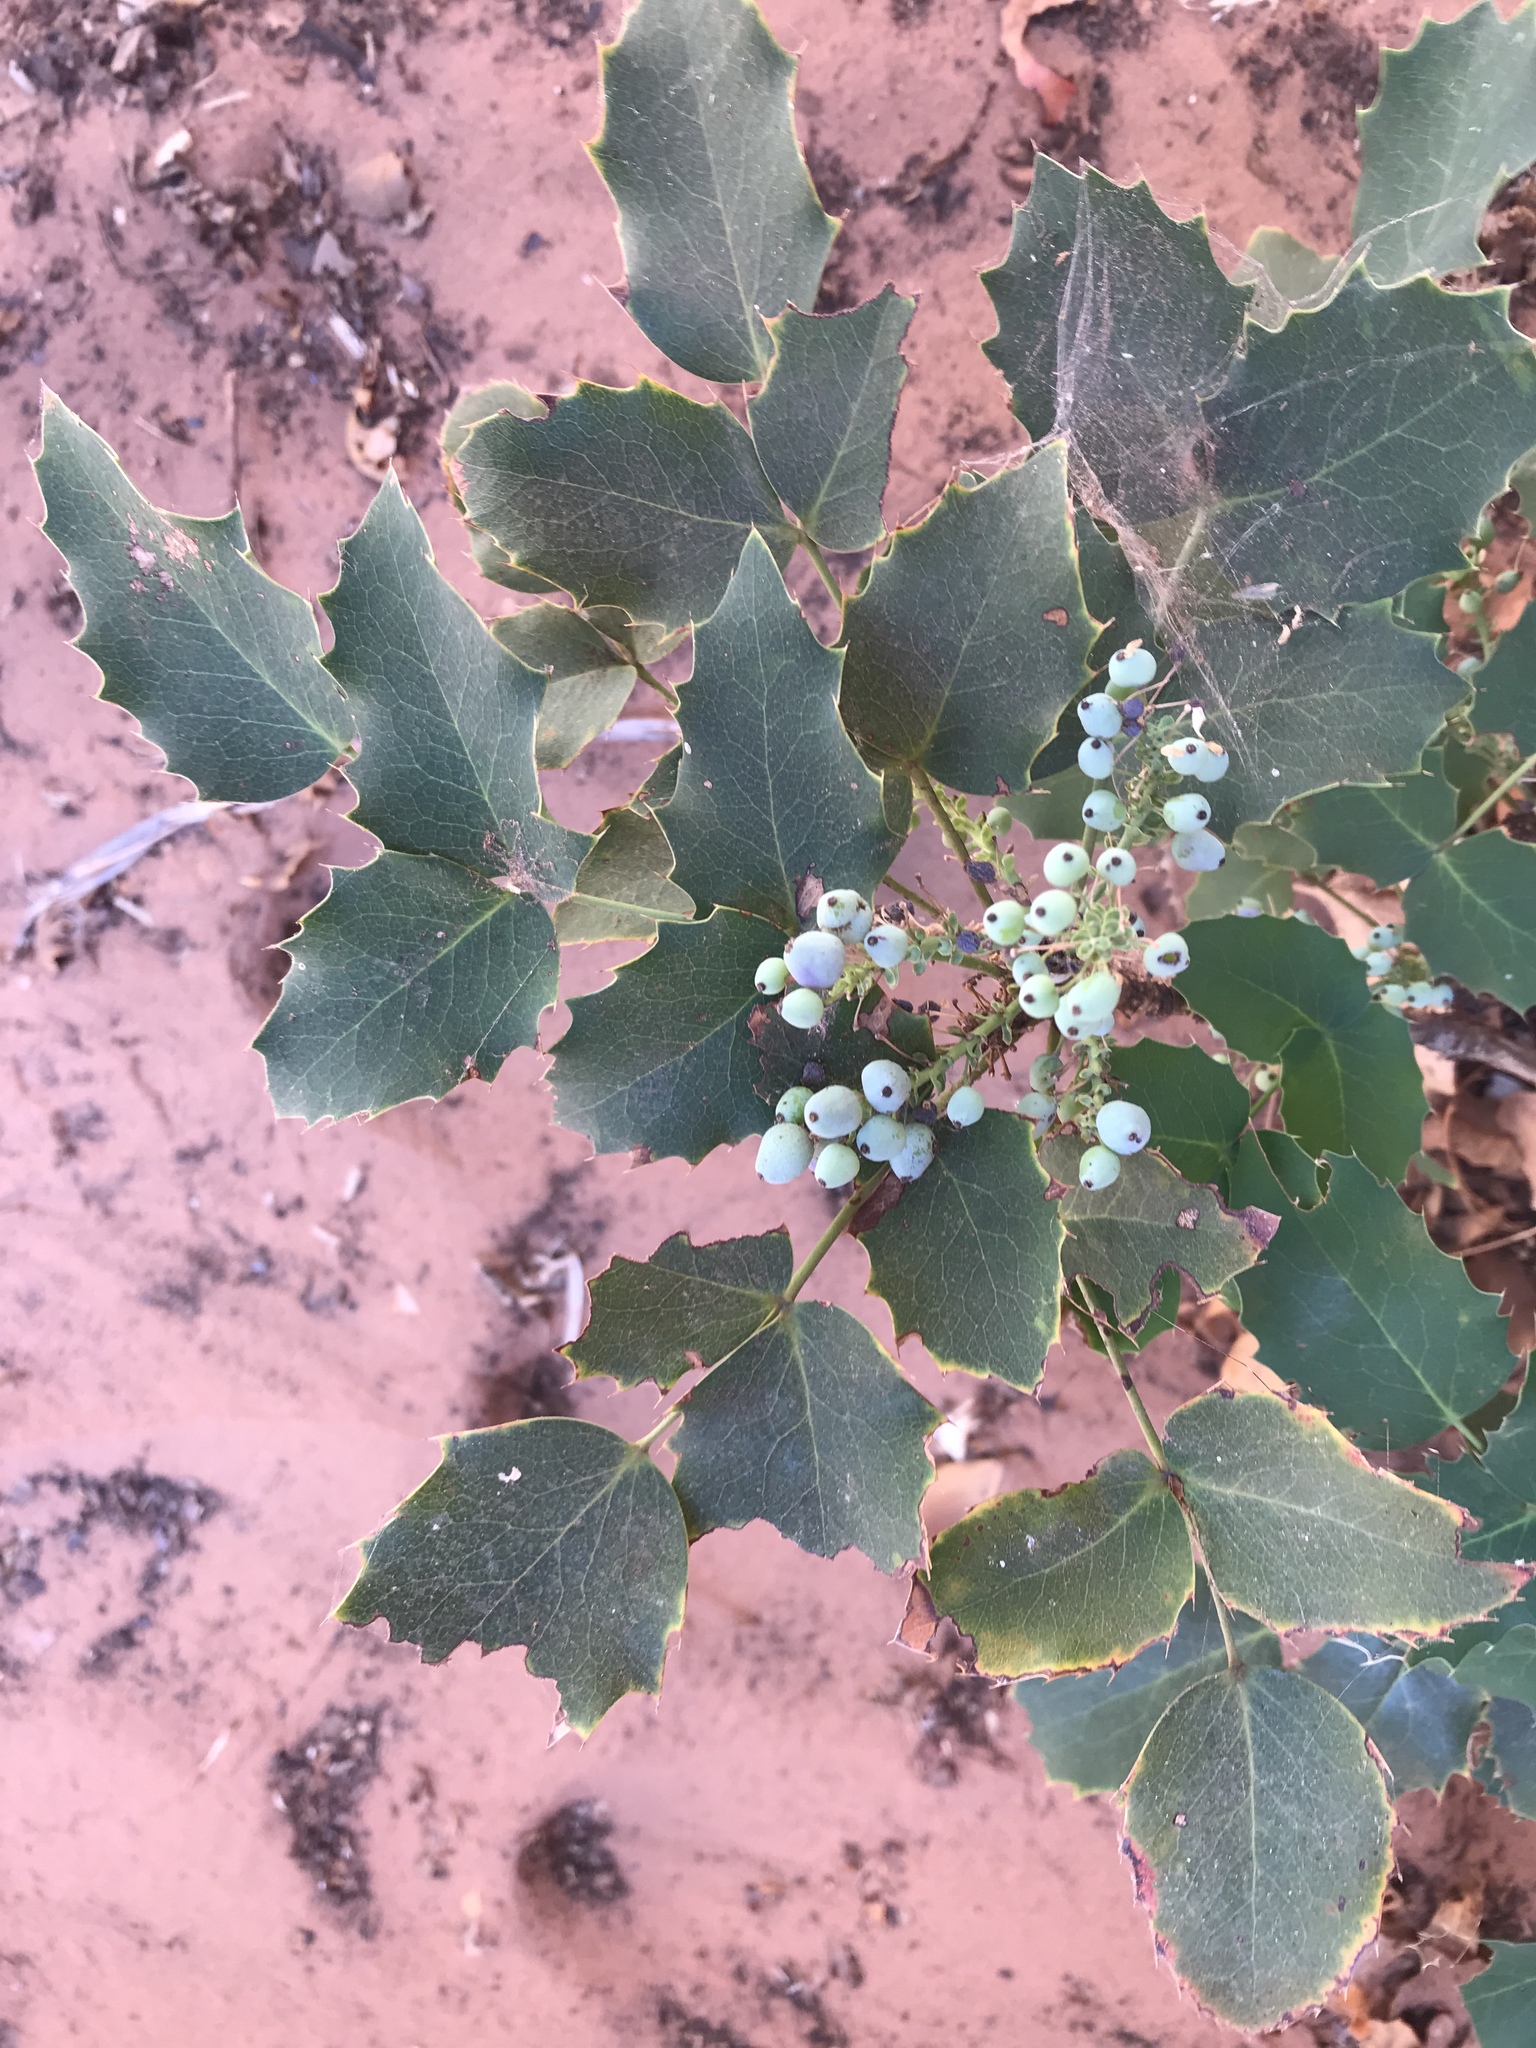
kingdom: Plantae
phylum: Tracheophyta
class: Magnoliopsida
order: Ranunculales
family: Berberidaceae
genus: Mahonia
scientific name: Mahonia repens
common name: Creeping oregon-grape
